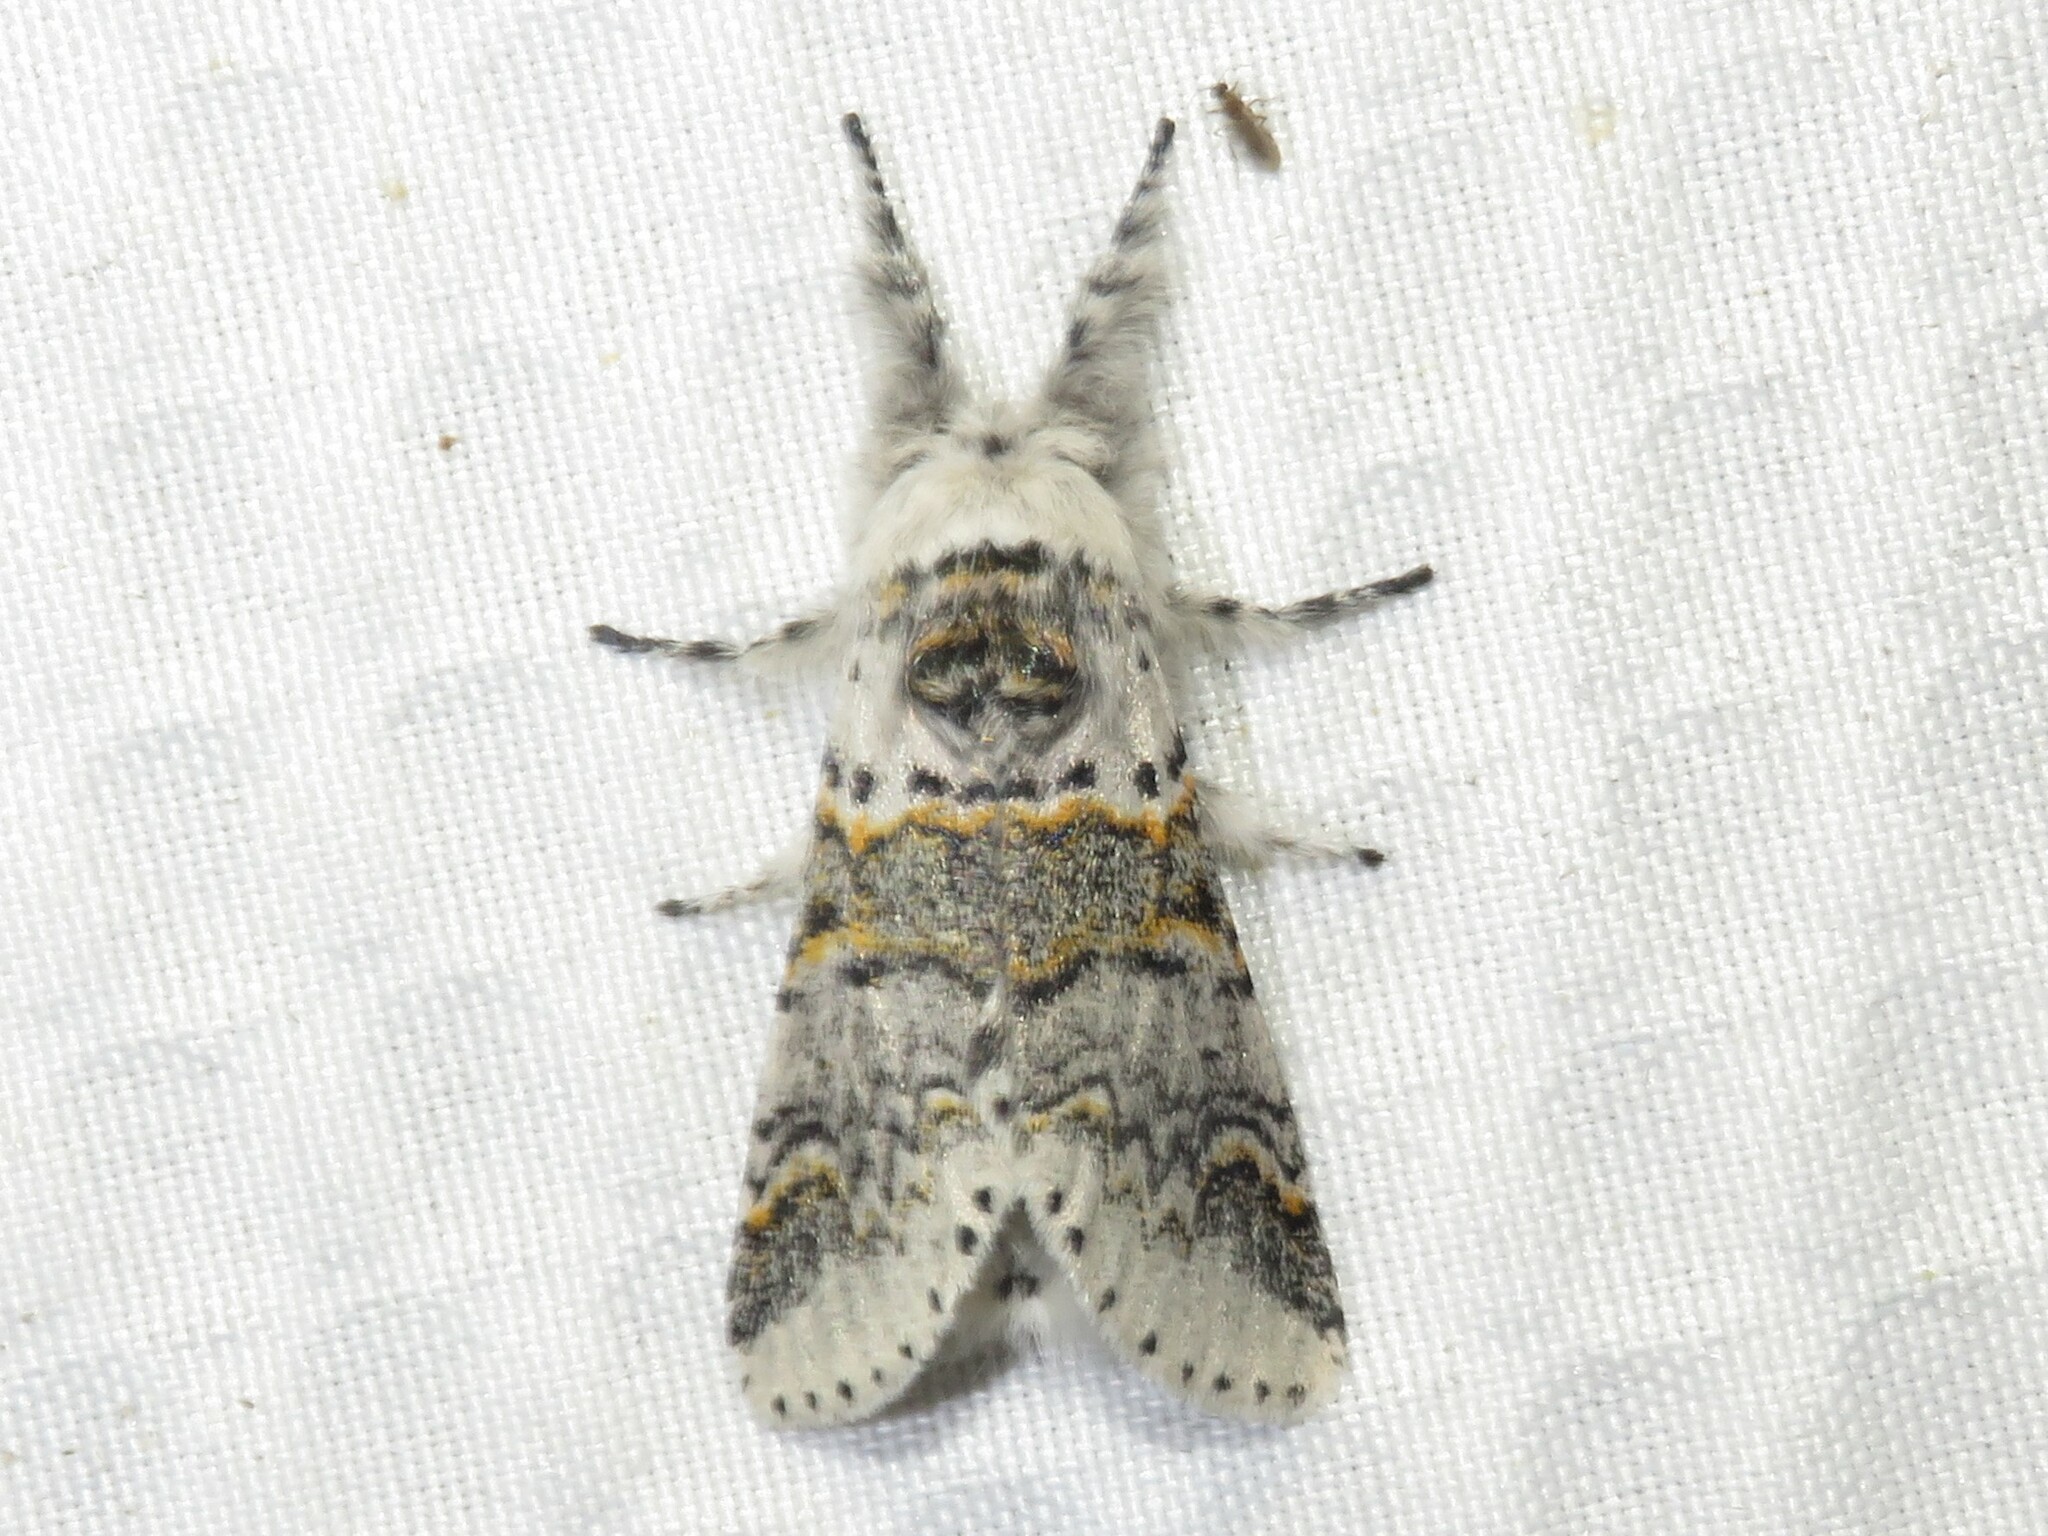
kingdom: Animalia
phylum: Arthropoda
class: Insecta
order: Lepidoptera
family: Notodontidae
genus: Furcula
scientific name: Furcula occidentalis
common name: Western furcula moth
